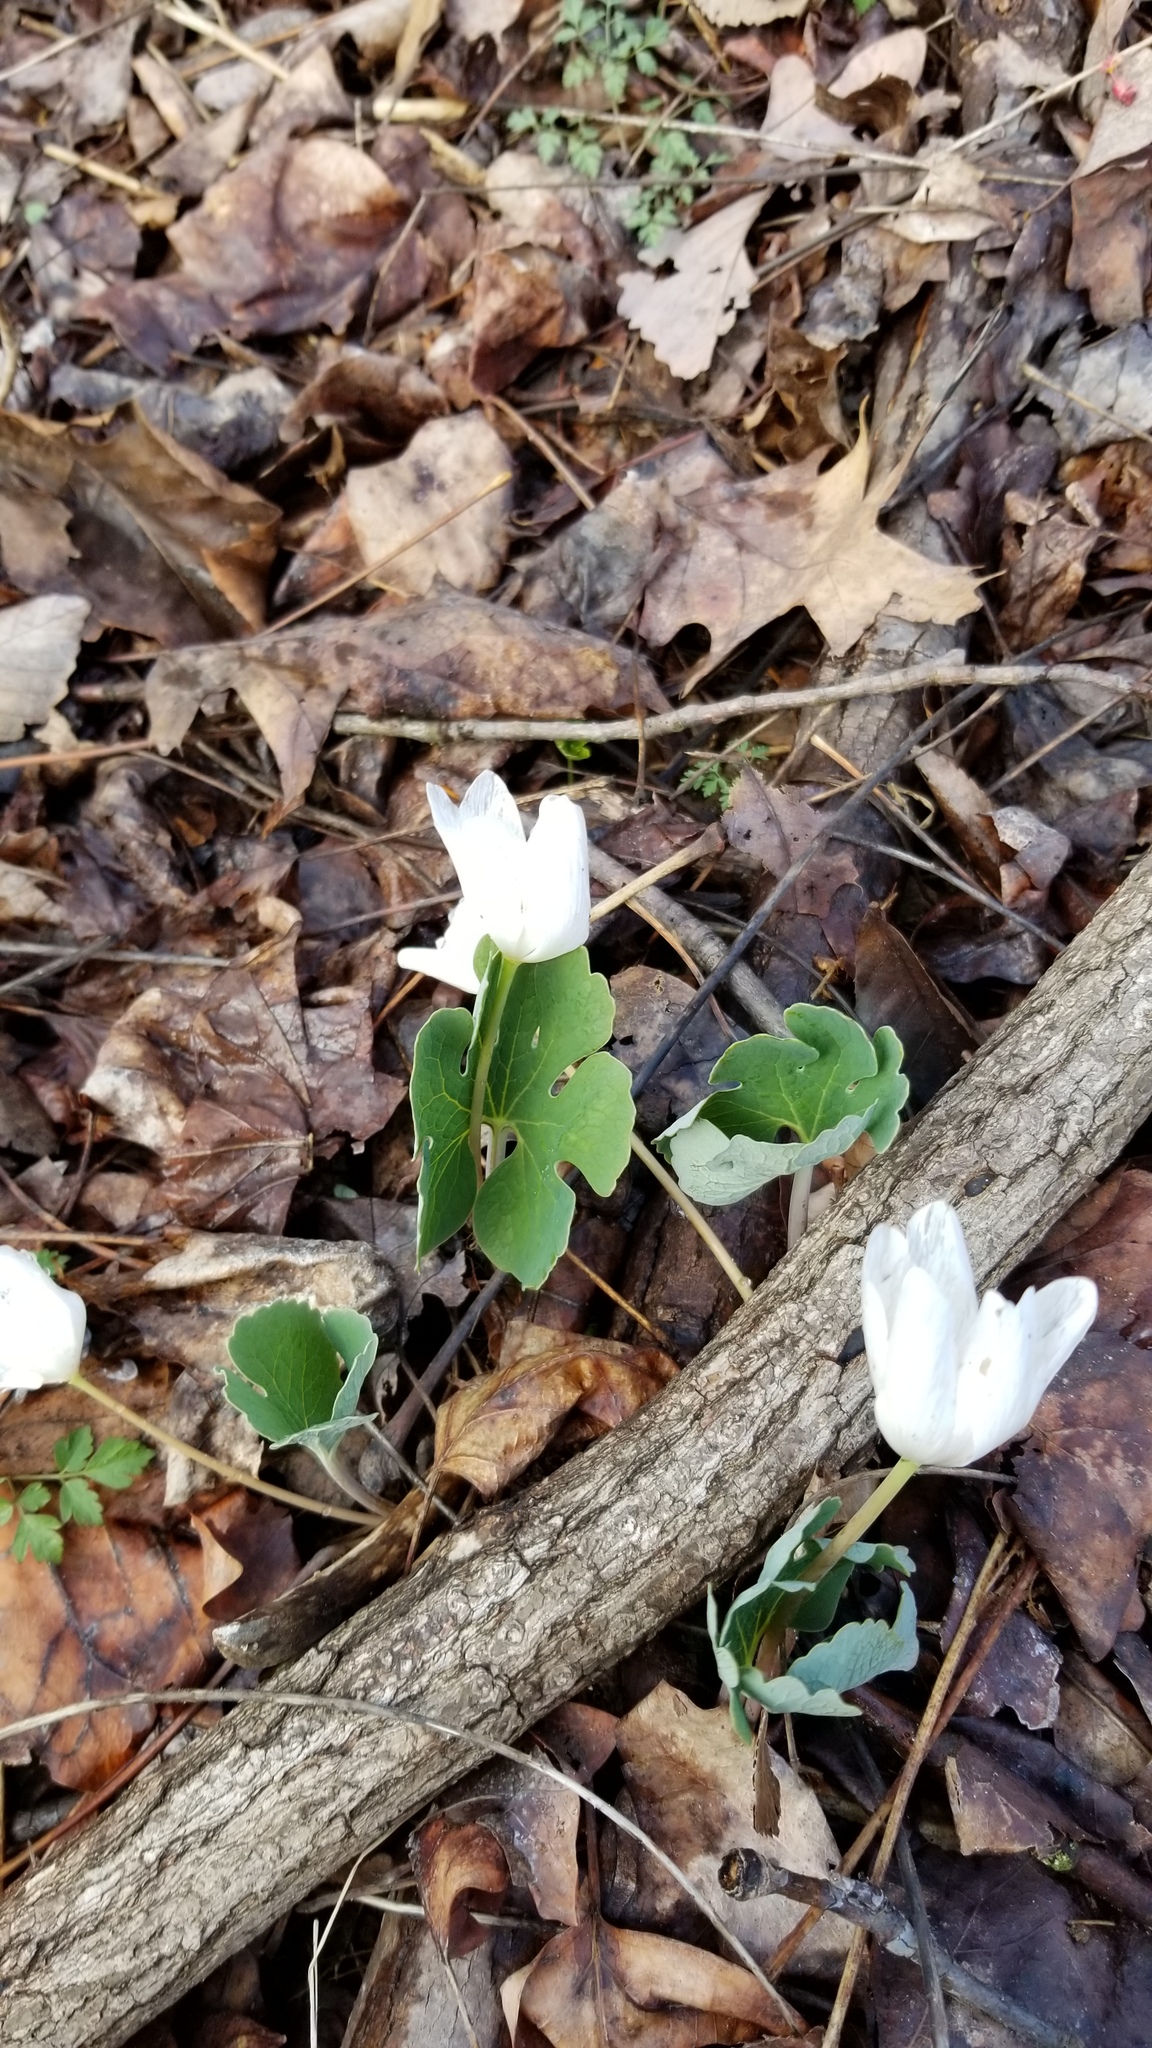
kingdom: Plantae
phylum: Tracheophyta
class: Magnoliopsida
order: Ranunculales
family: Papaveraceae
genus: Sanguinaria
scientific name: Sanguinaria canadensis
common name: Bloodroot
